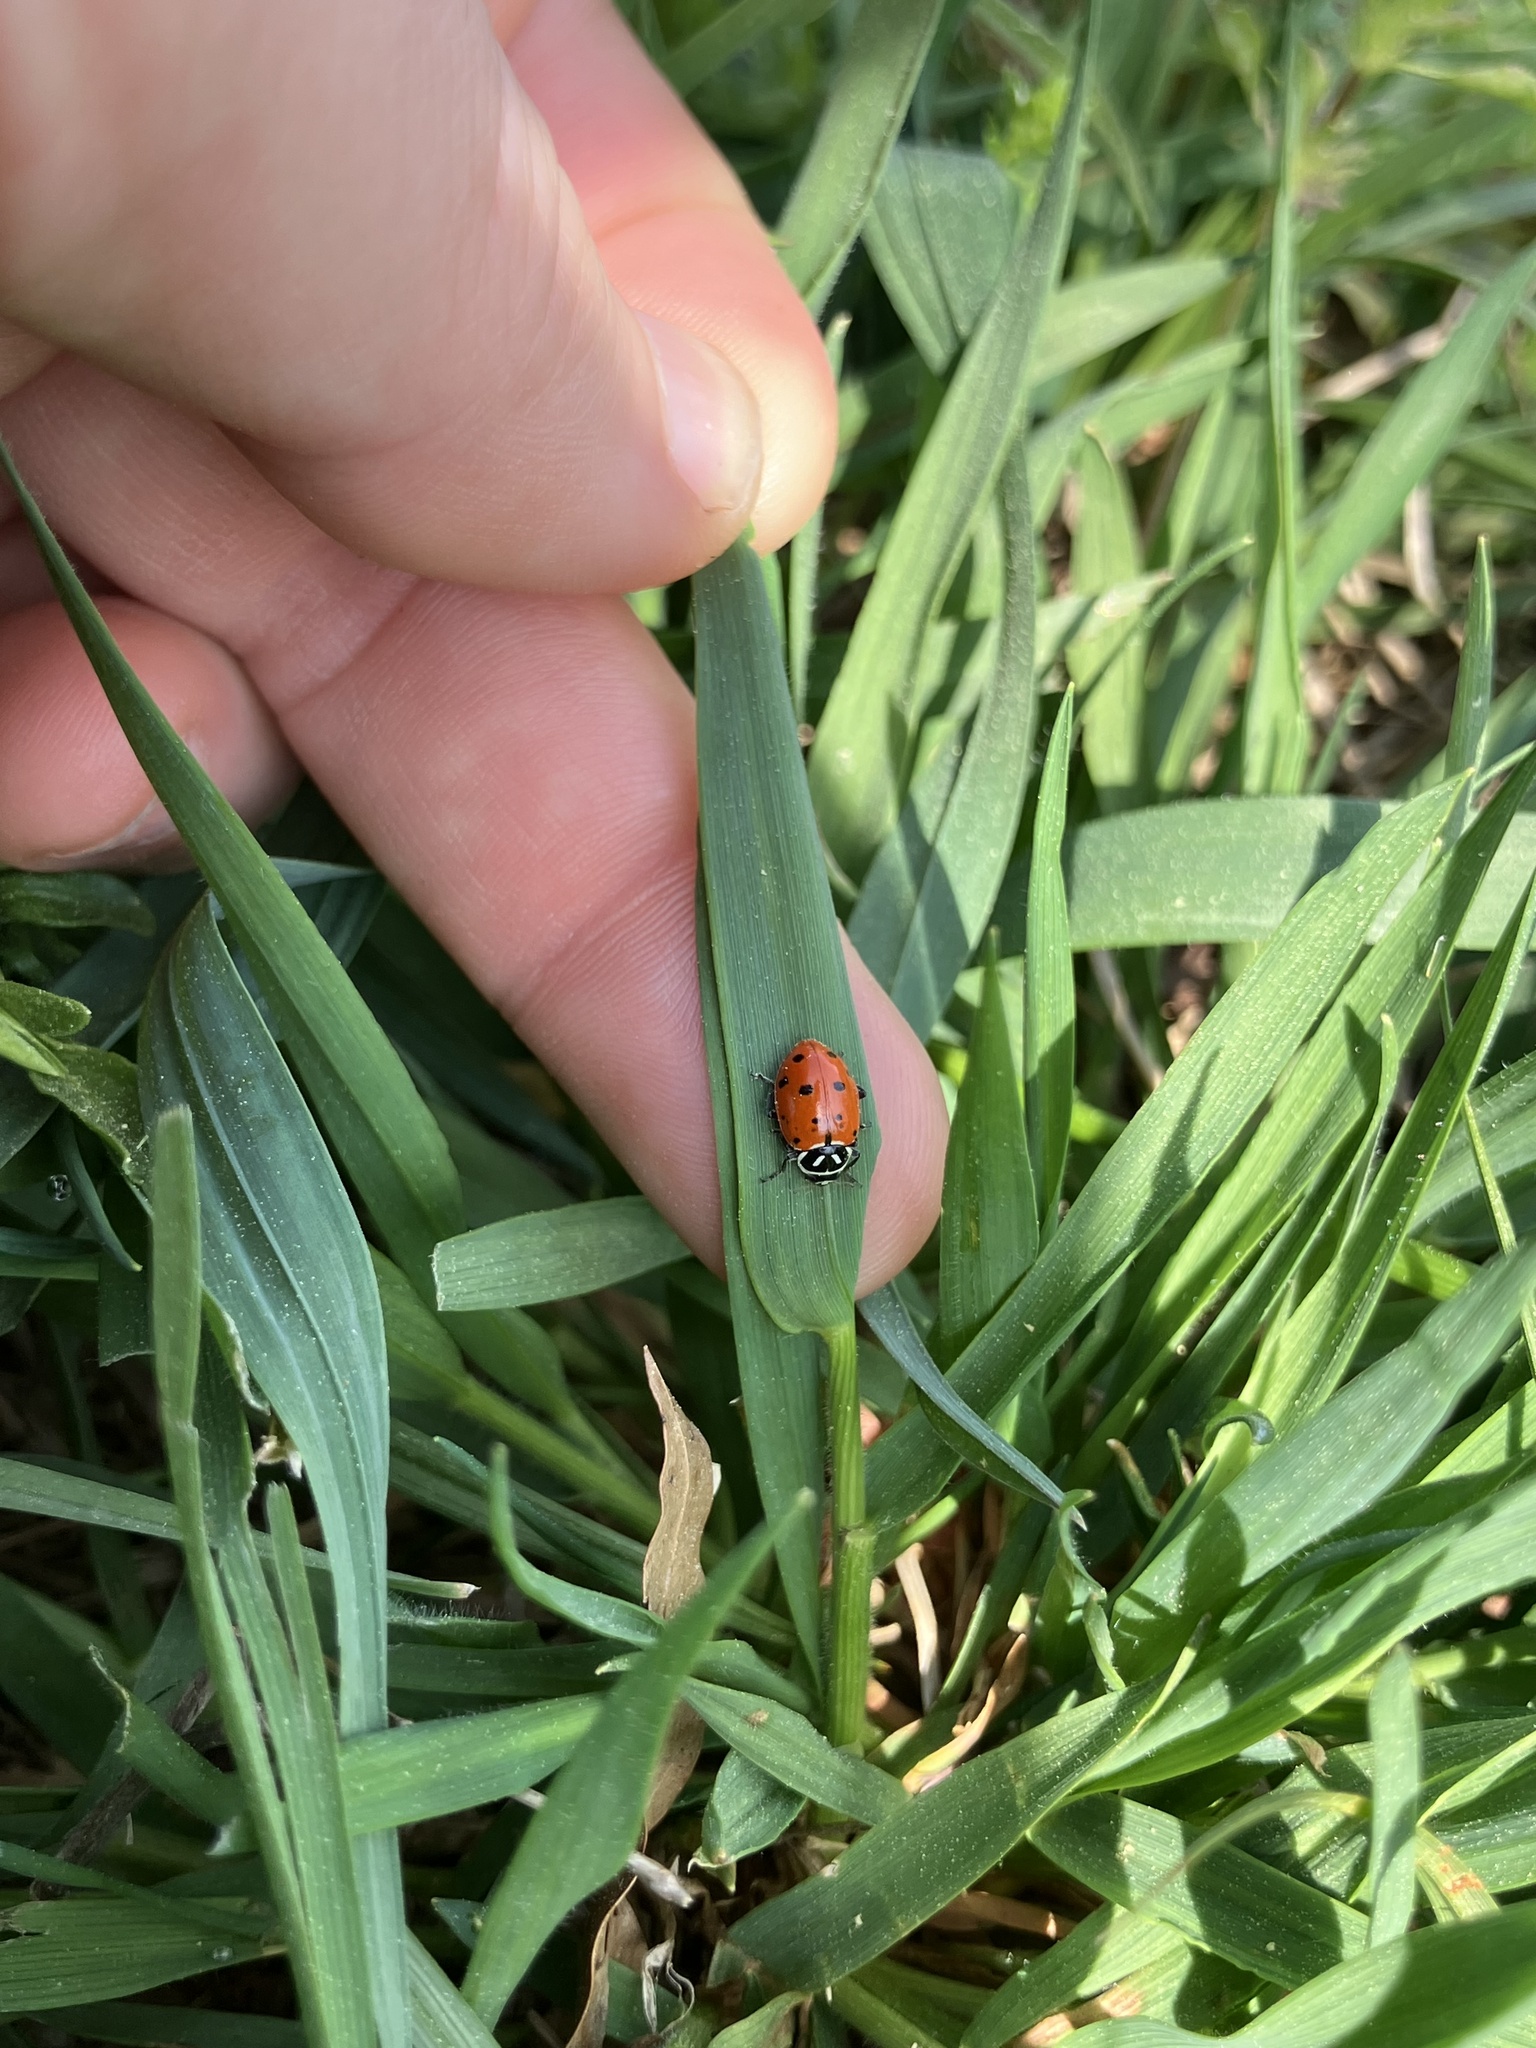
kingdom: Animalia
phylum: Arthropoda
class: Insecta
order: Coleoptera
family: Coccinellidae
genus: Hippodamia
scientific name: Hippodamia convergens
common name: Convergent lady beetle
